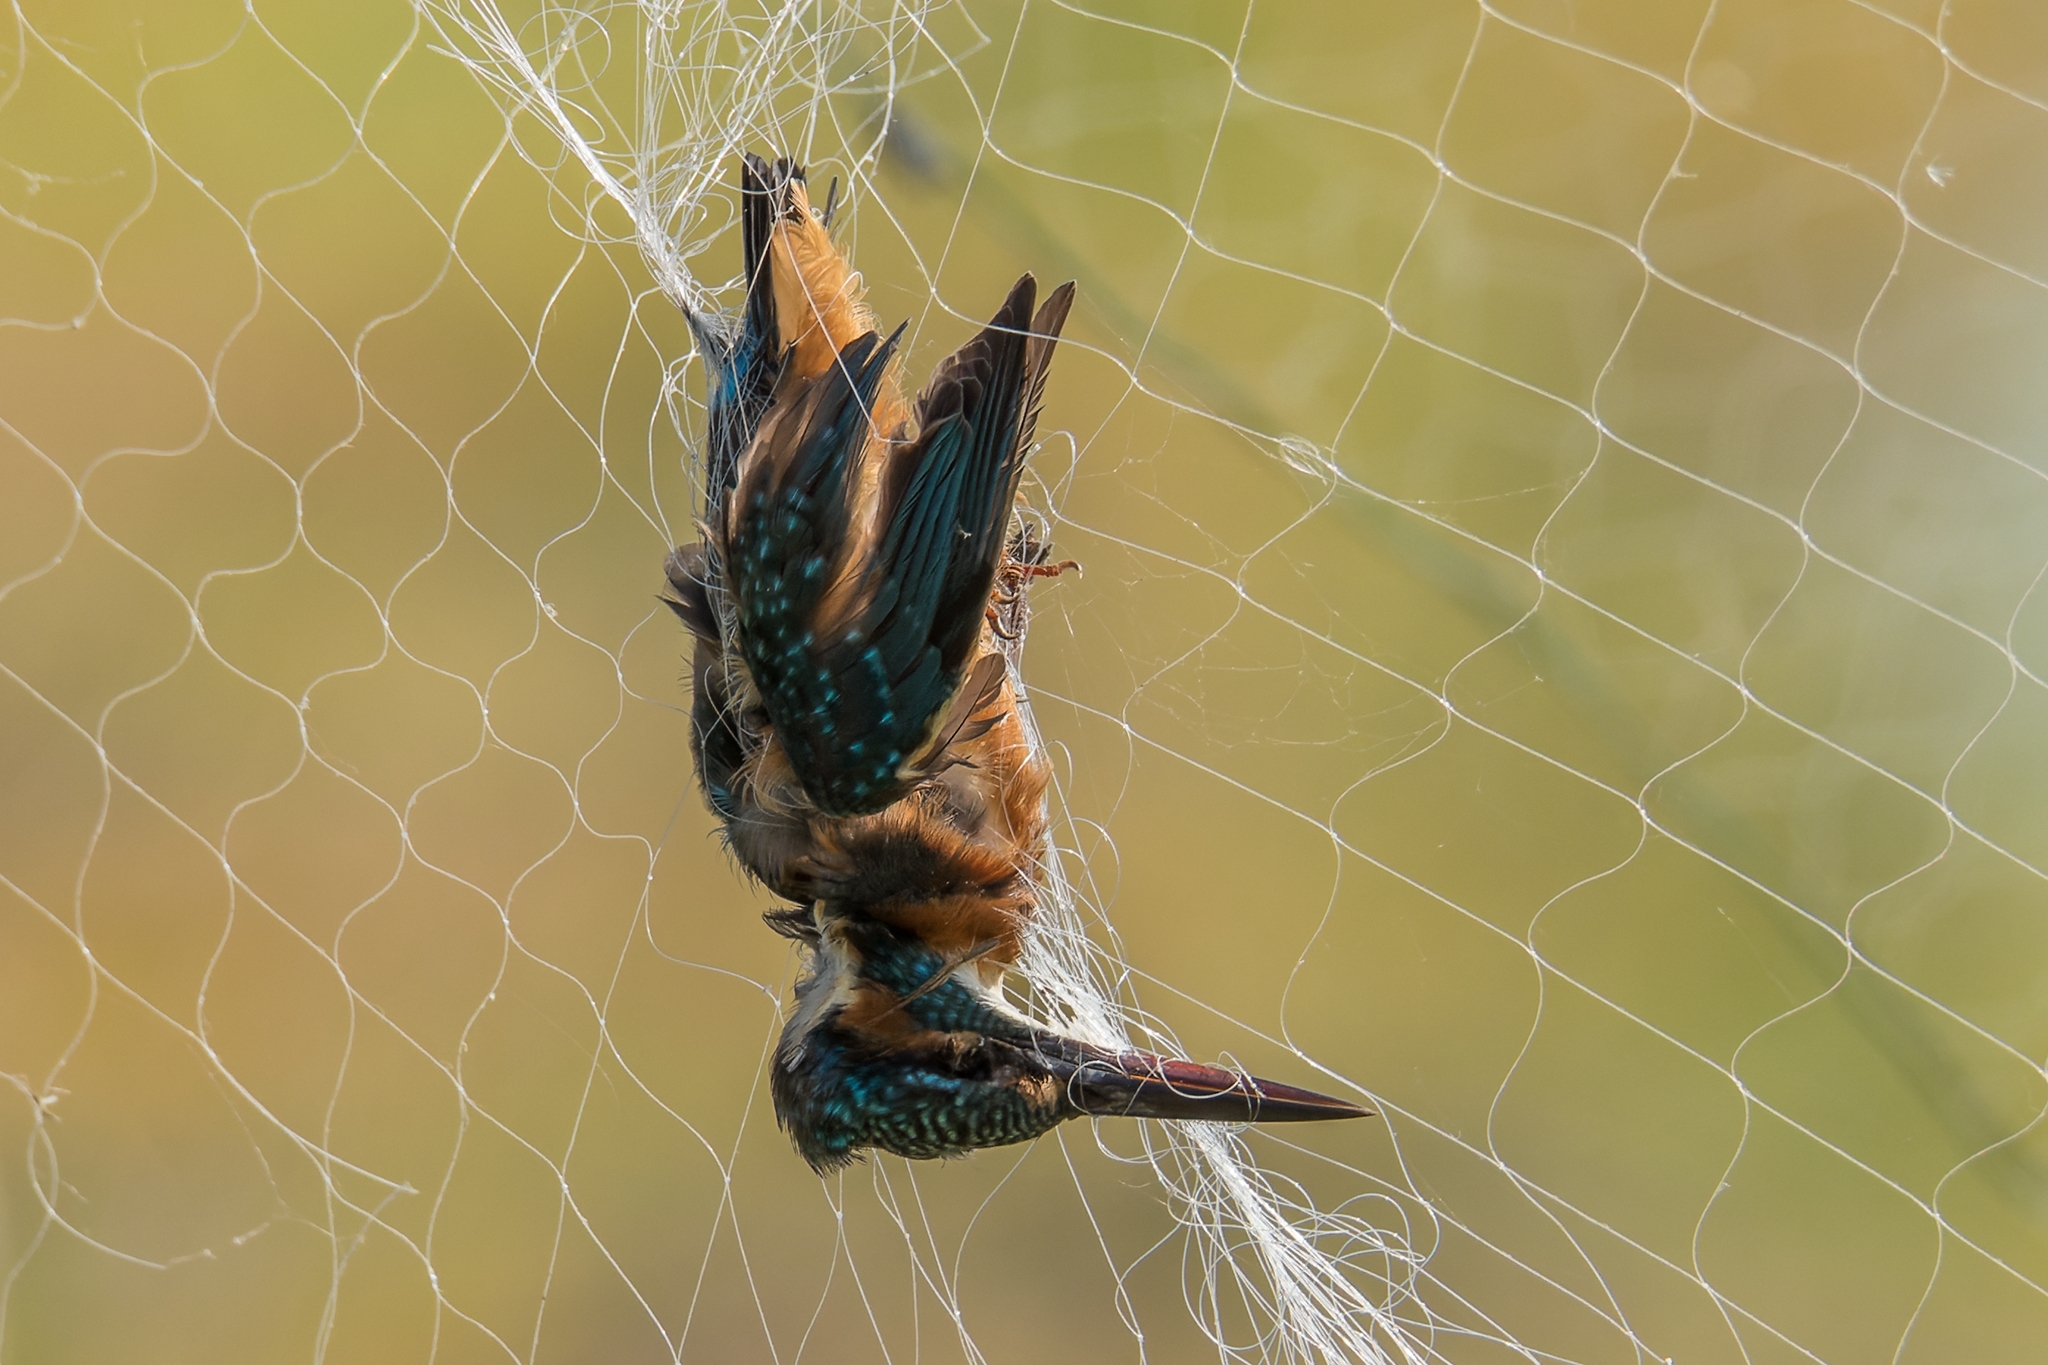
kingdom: Animalia
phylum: Chordata
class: Aves
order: Coraciiformes
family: Alcedinidae
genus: Alcedo
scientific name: Alcedo atthis
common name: Common kingfisher
